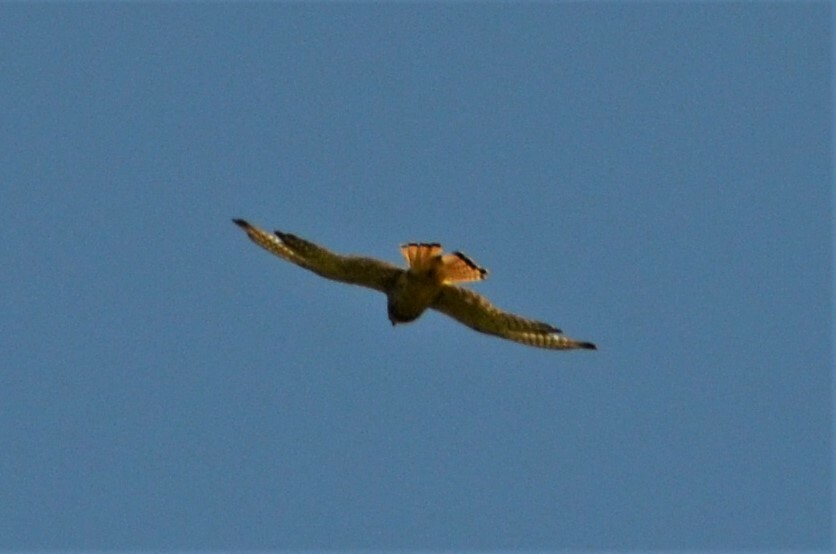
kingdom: Animalia
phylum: Chordata
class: Aves
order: Falconiformes
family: Falconidae
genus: Falco
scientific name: Falco tinnunculus
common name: Common kestrel
